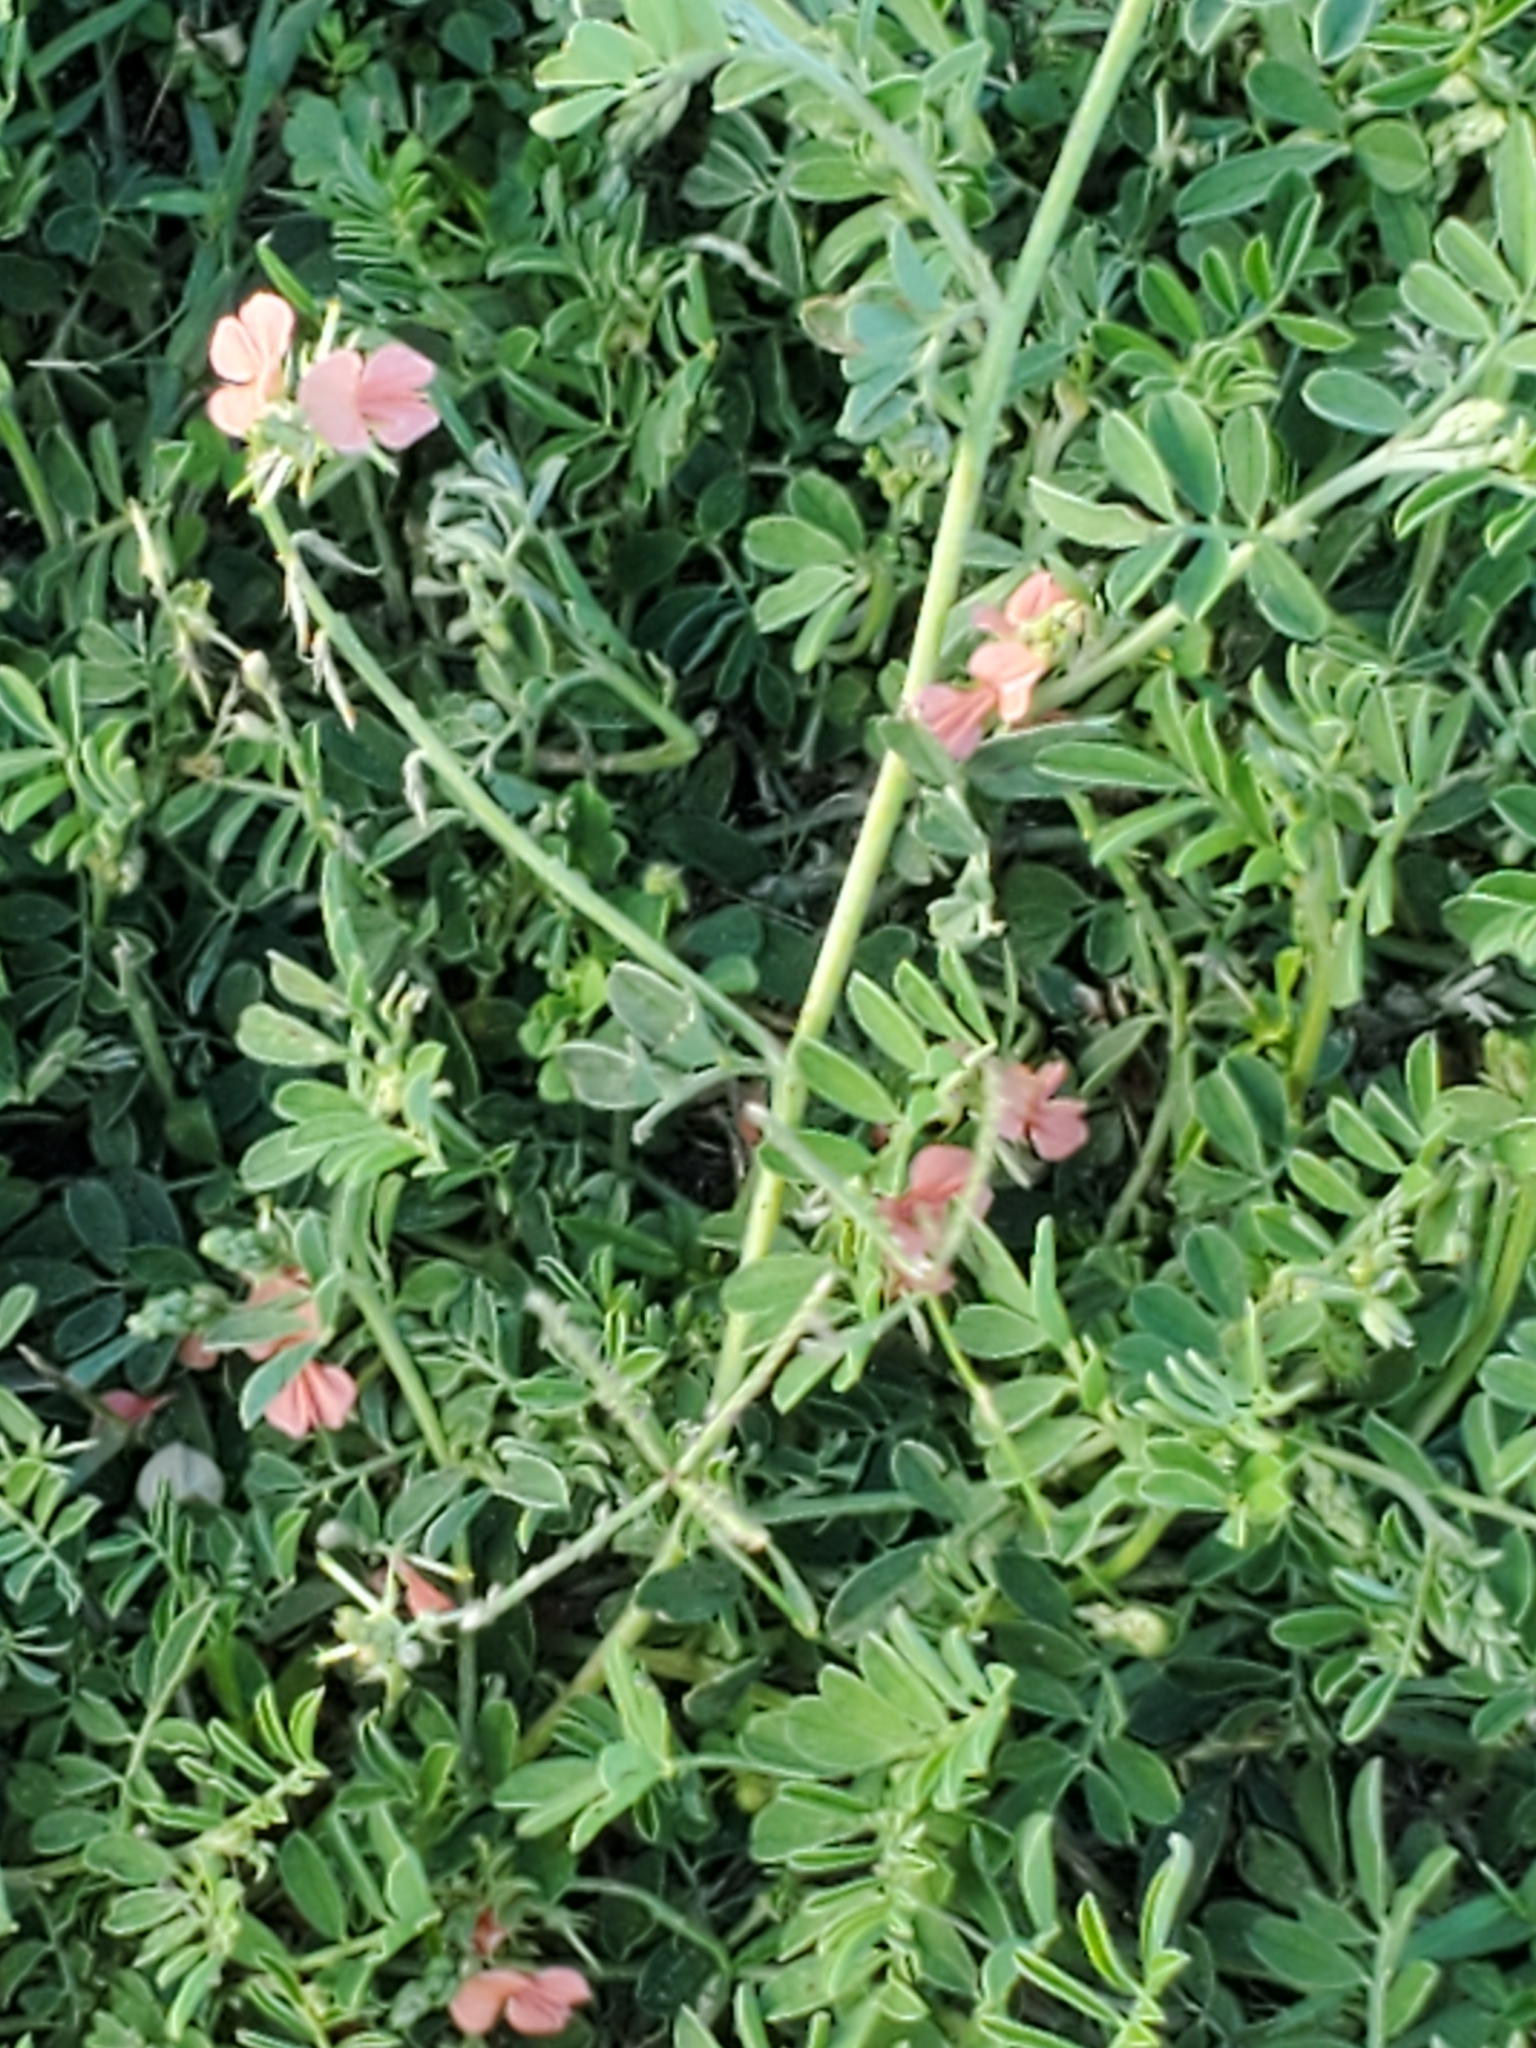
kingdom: Plantae
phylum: Tracheophyta
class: Magnoliopsida
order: Fabales
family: Fabaceae
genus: Indigofera
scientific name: Indigofera miniata
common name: Coast indigo
